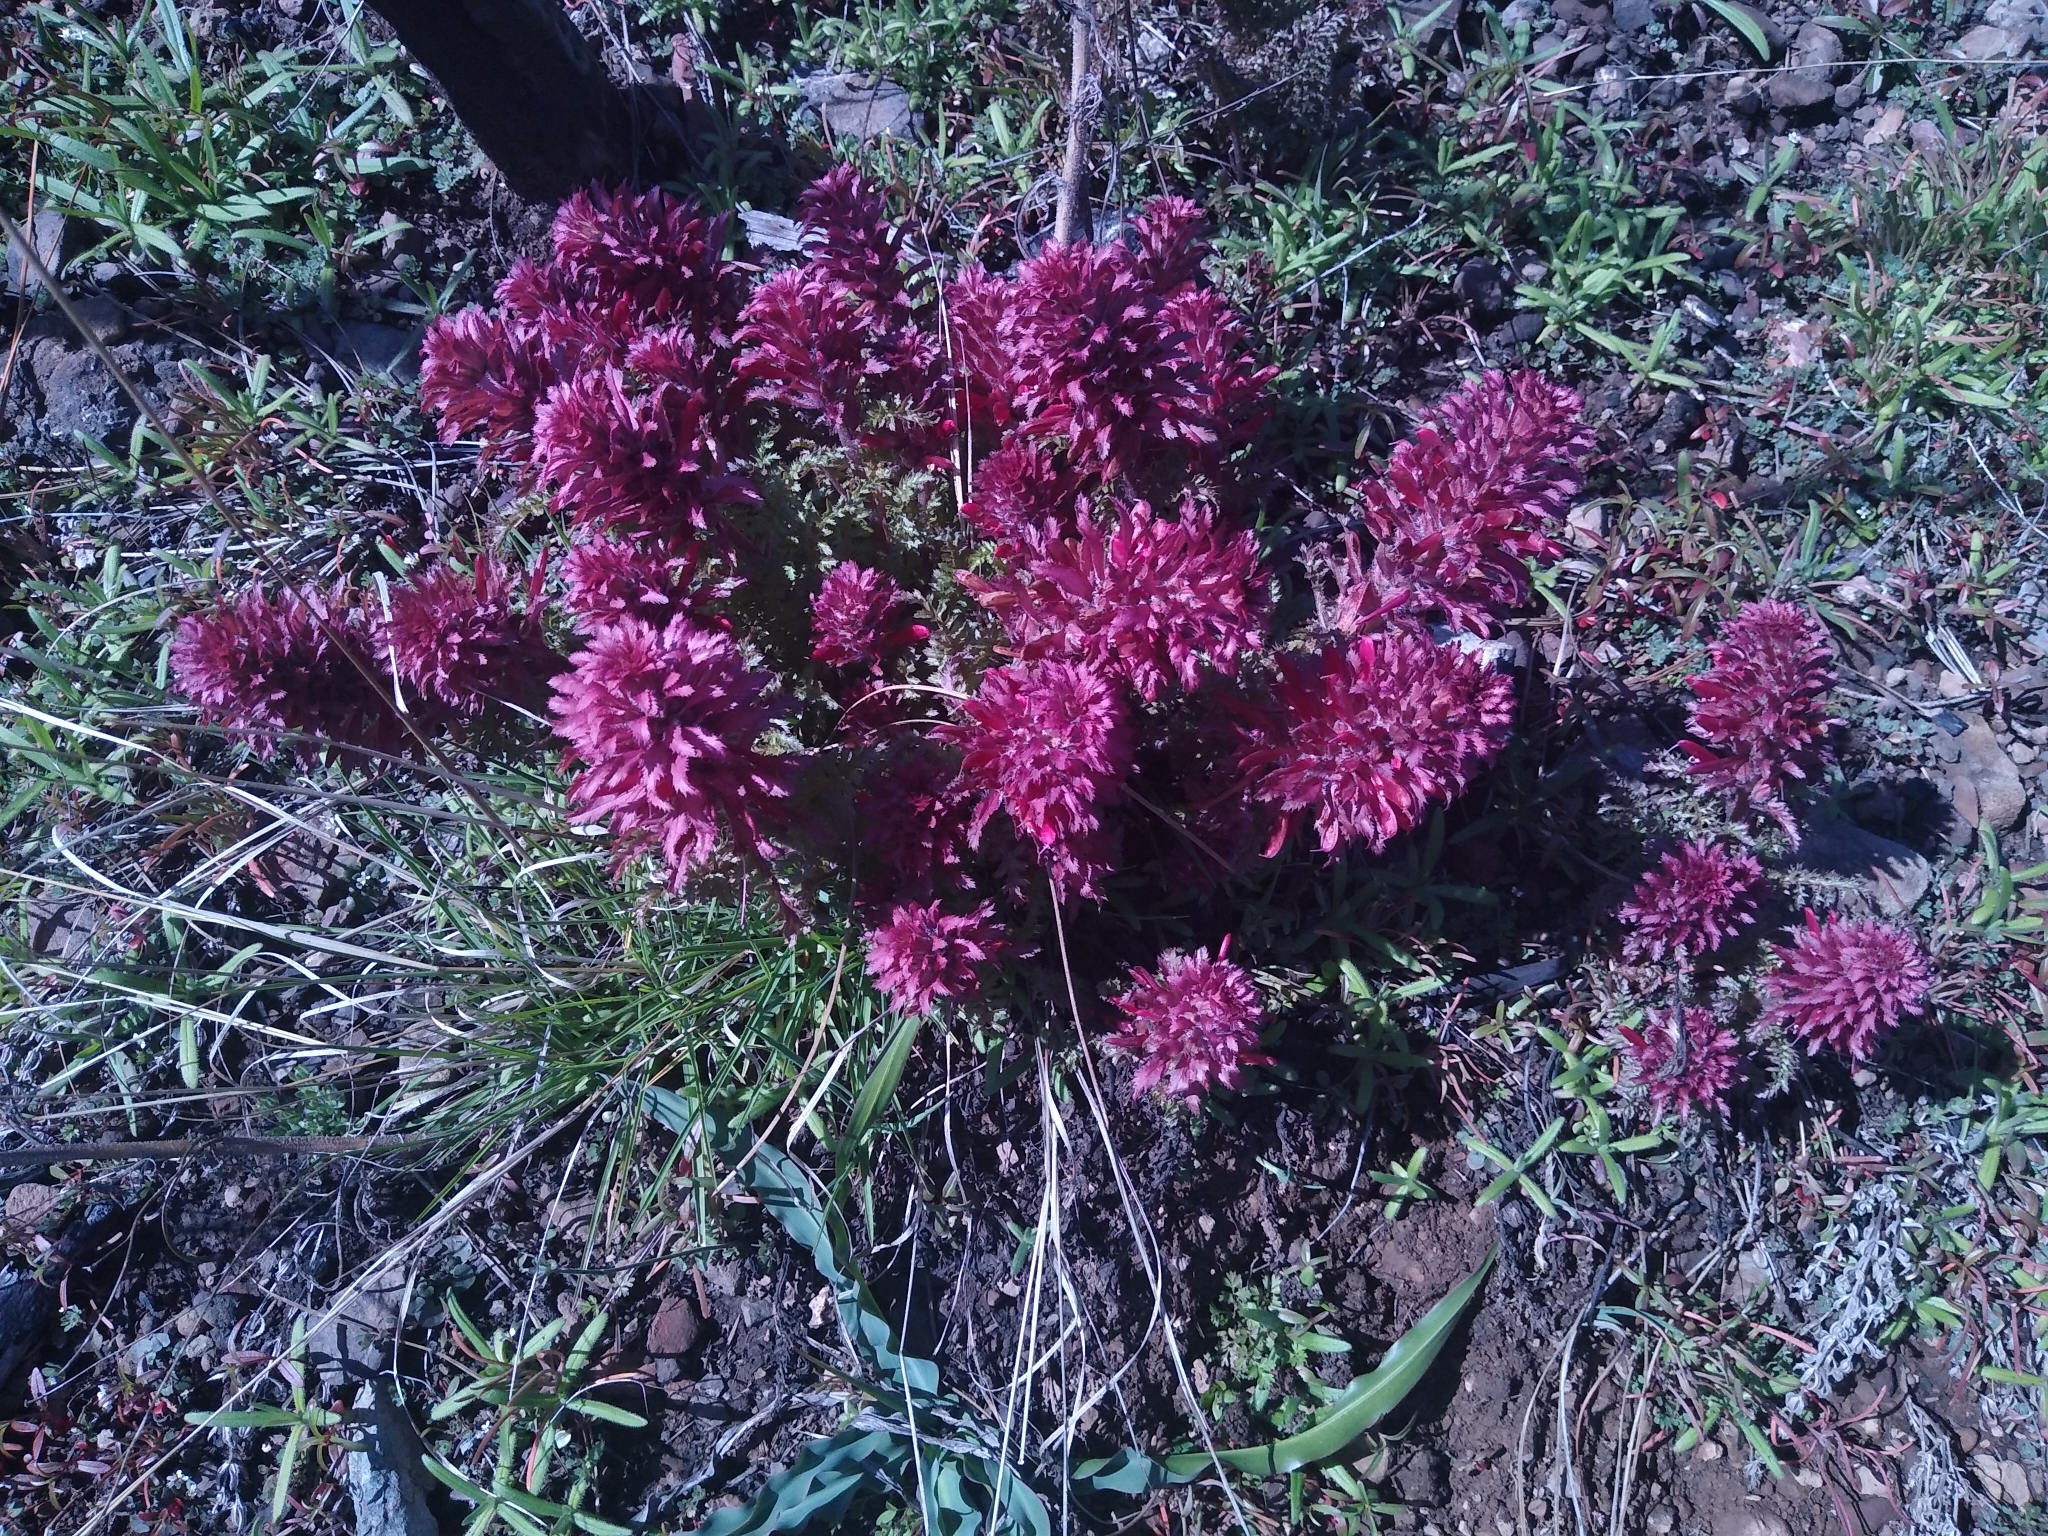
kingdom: Plantae
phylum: Tracheophyta
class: Magnoliopsida
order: Lamiales
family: Orobanchaceae
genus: Pedicularis
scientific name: Pedicularis densiflora
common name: Indian warrior
